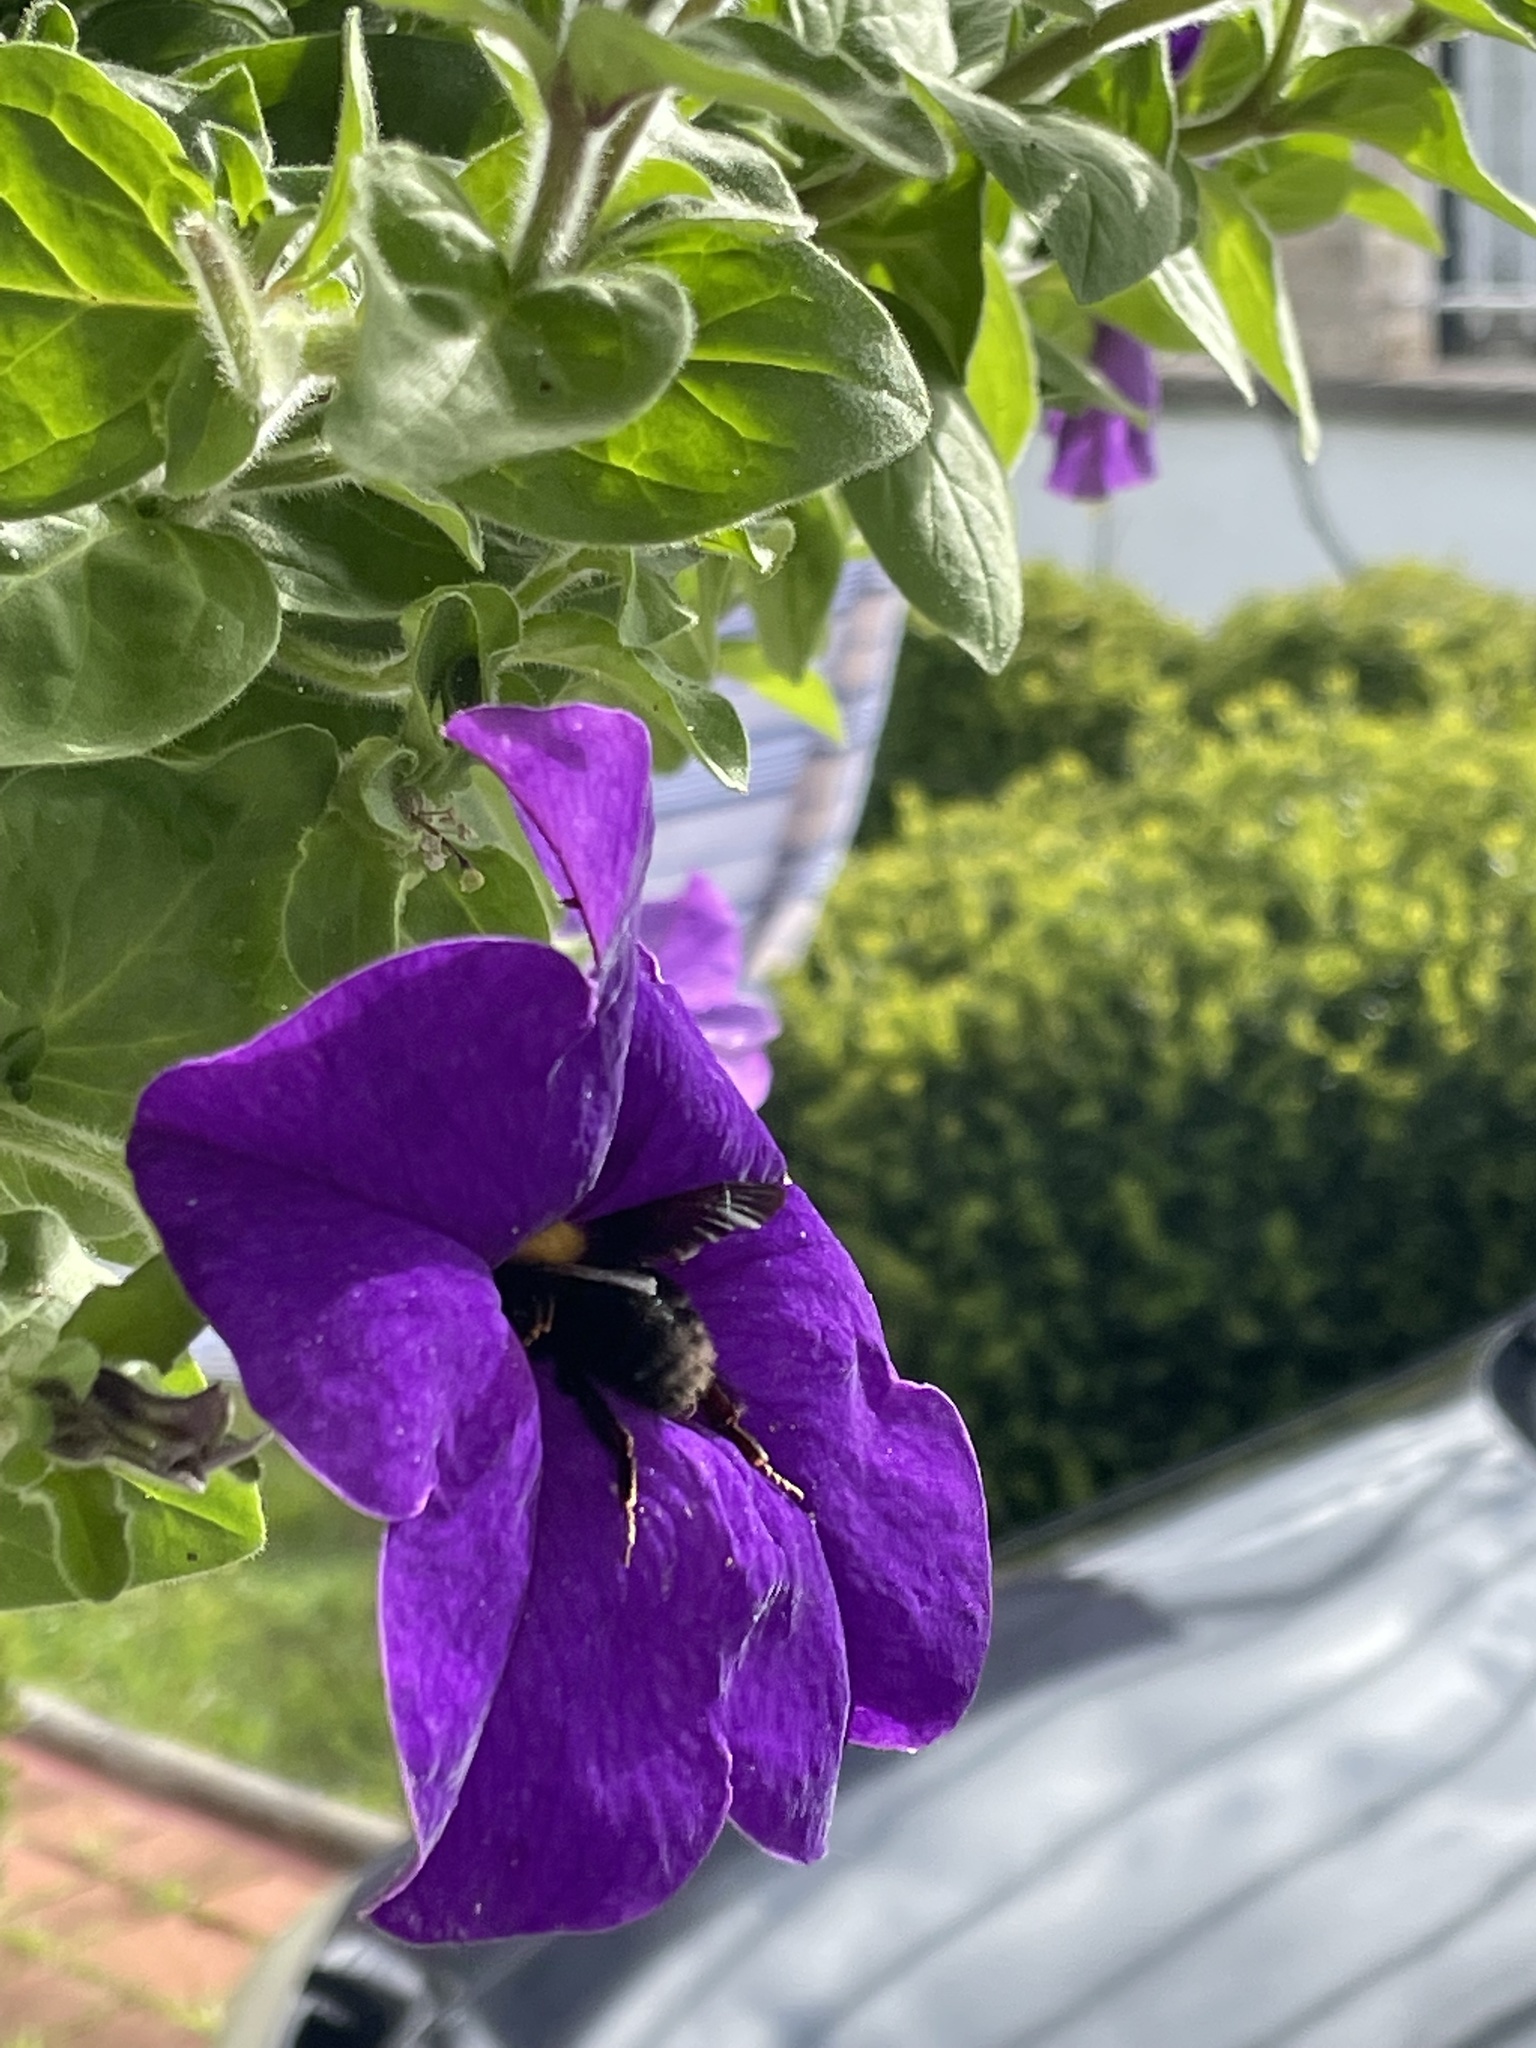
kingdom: Animalia
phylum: Arthropoda
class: Insecta
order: Hymenoptera
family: Apidae
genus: Bombus
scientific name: Bombus argillaceus
